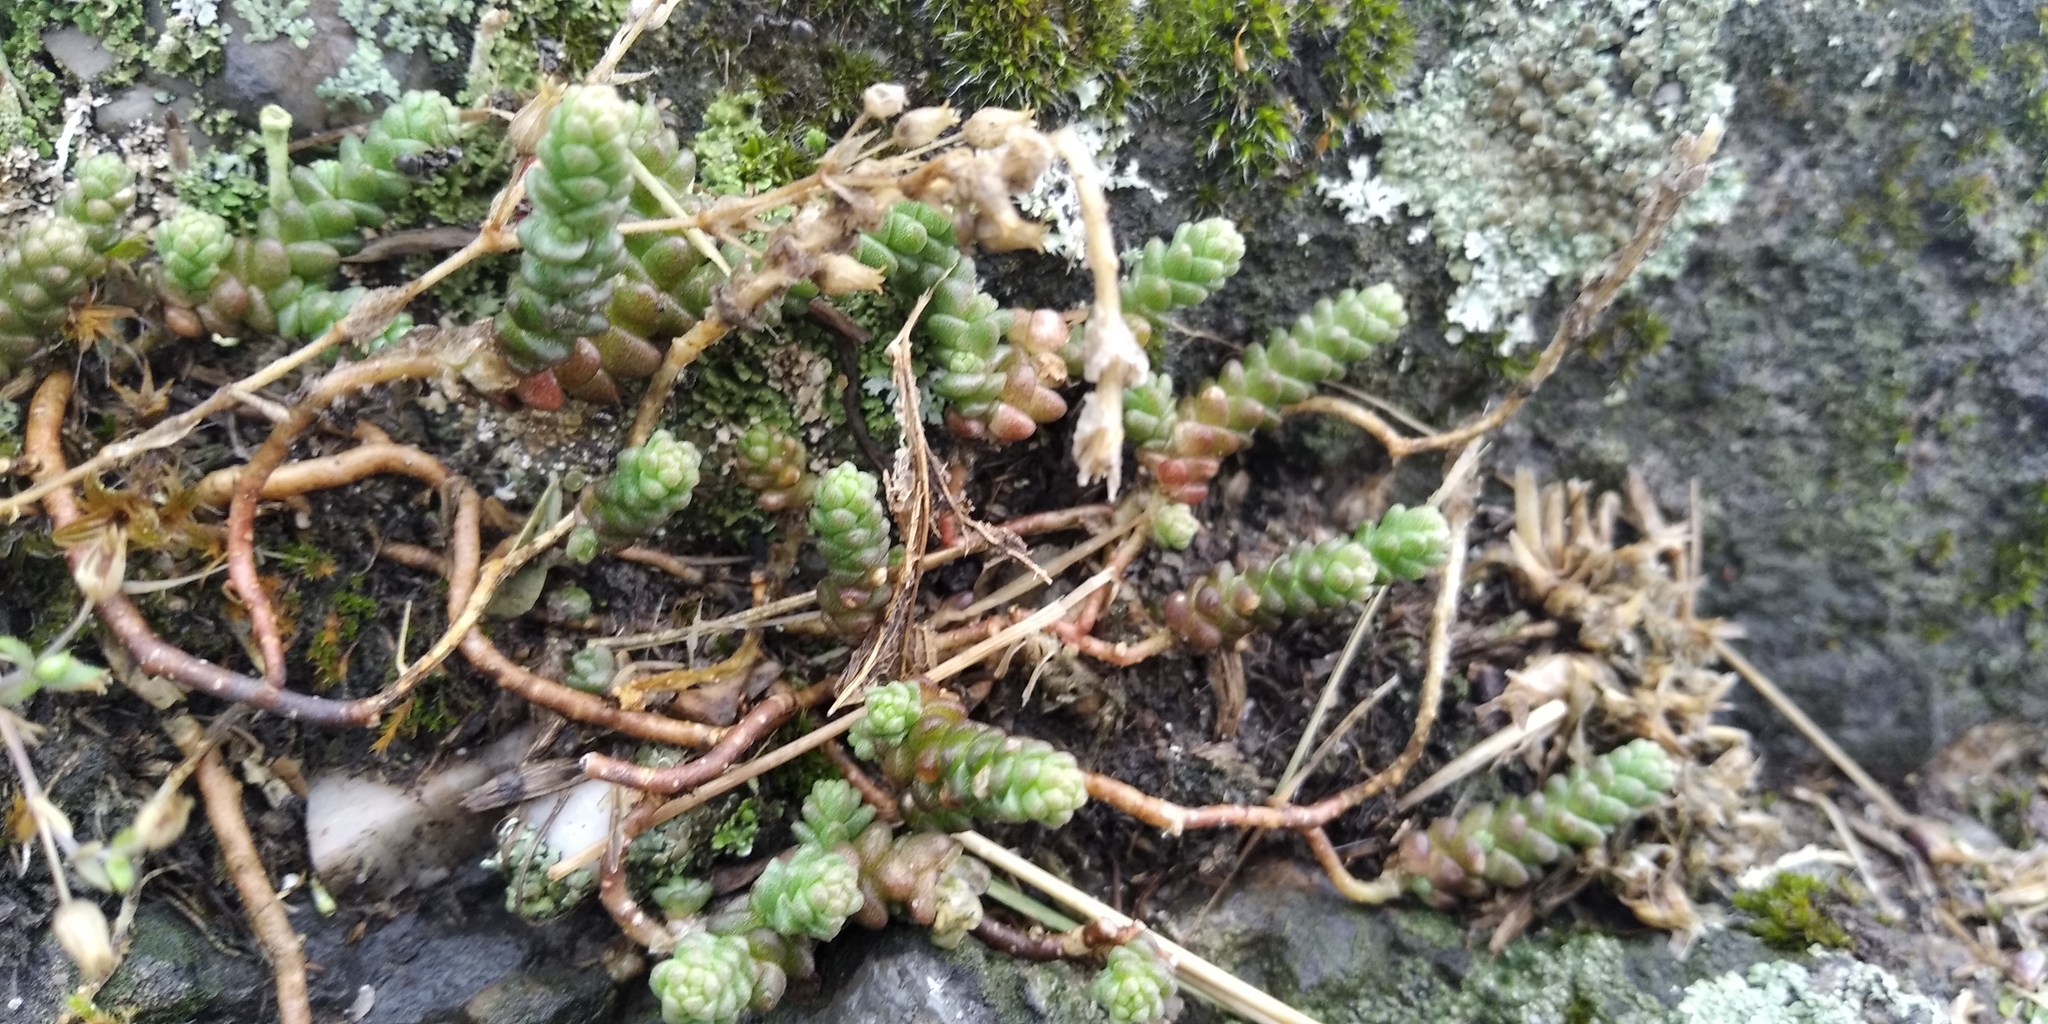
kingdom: Plantae
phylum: Tracheophyta
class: Magnoliopsida
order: Saxifragales
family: Crassulaceae
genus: Sedum
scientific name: Sedum acre
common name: Biting stonecrop
